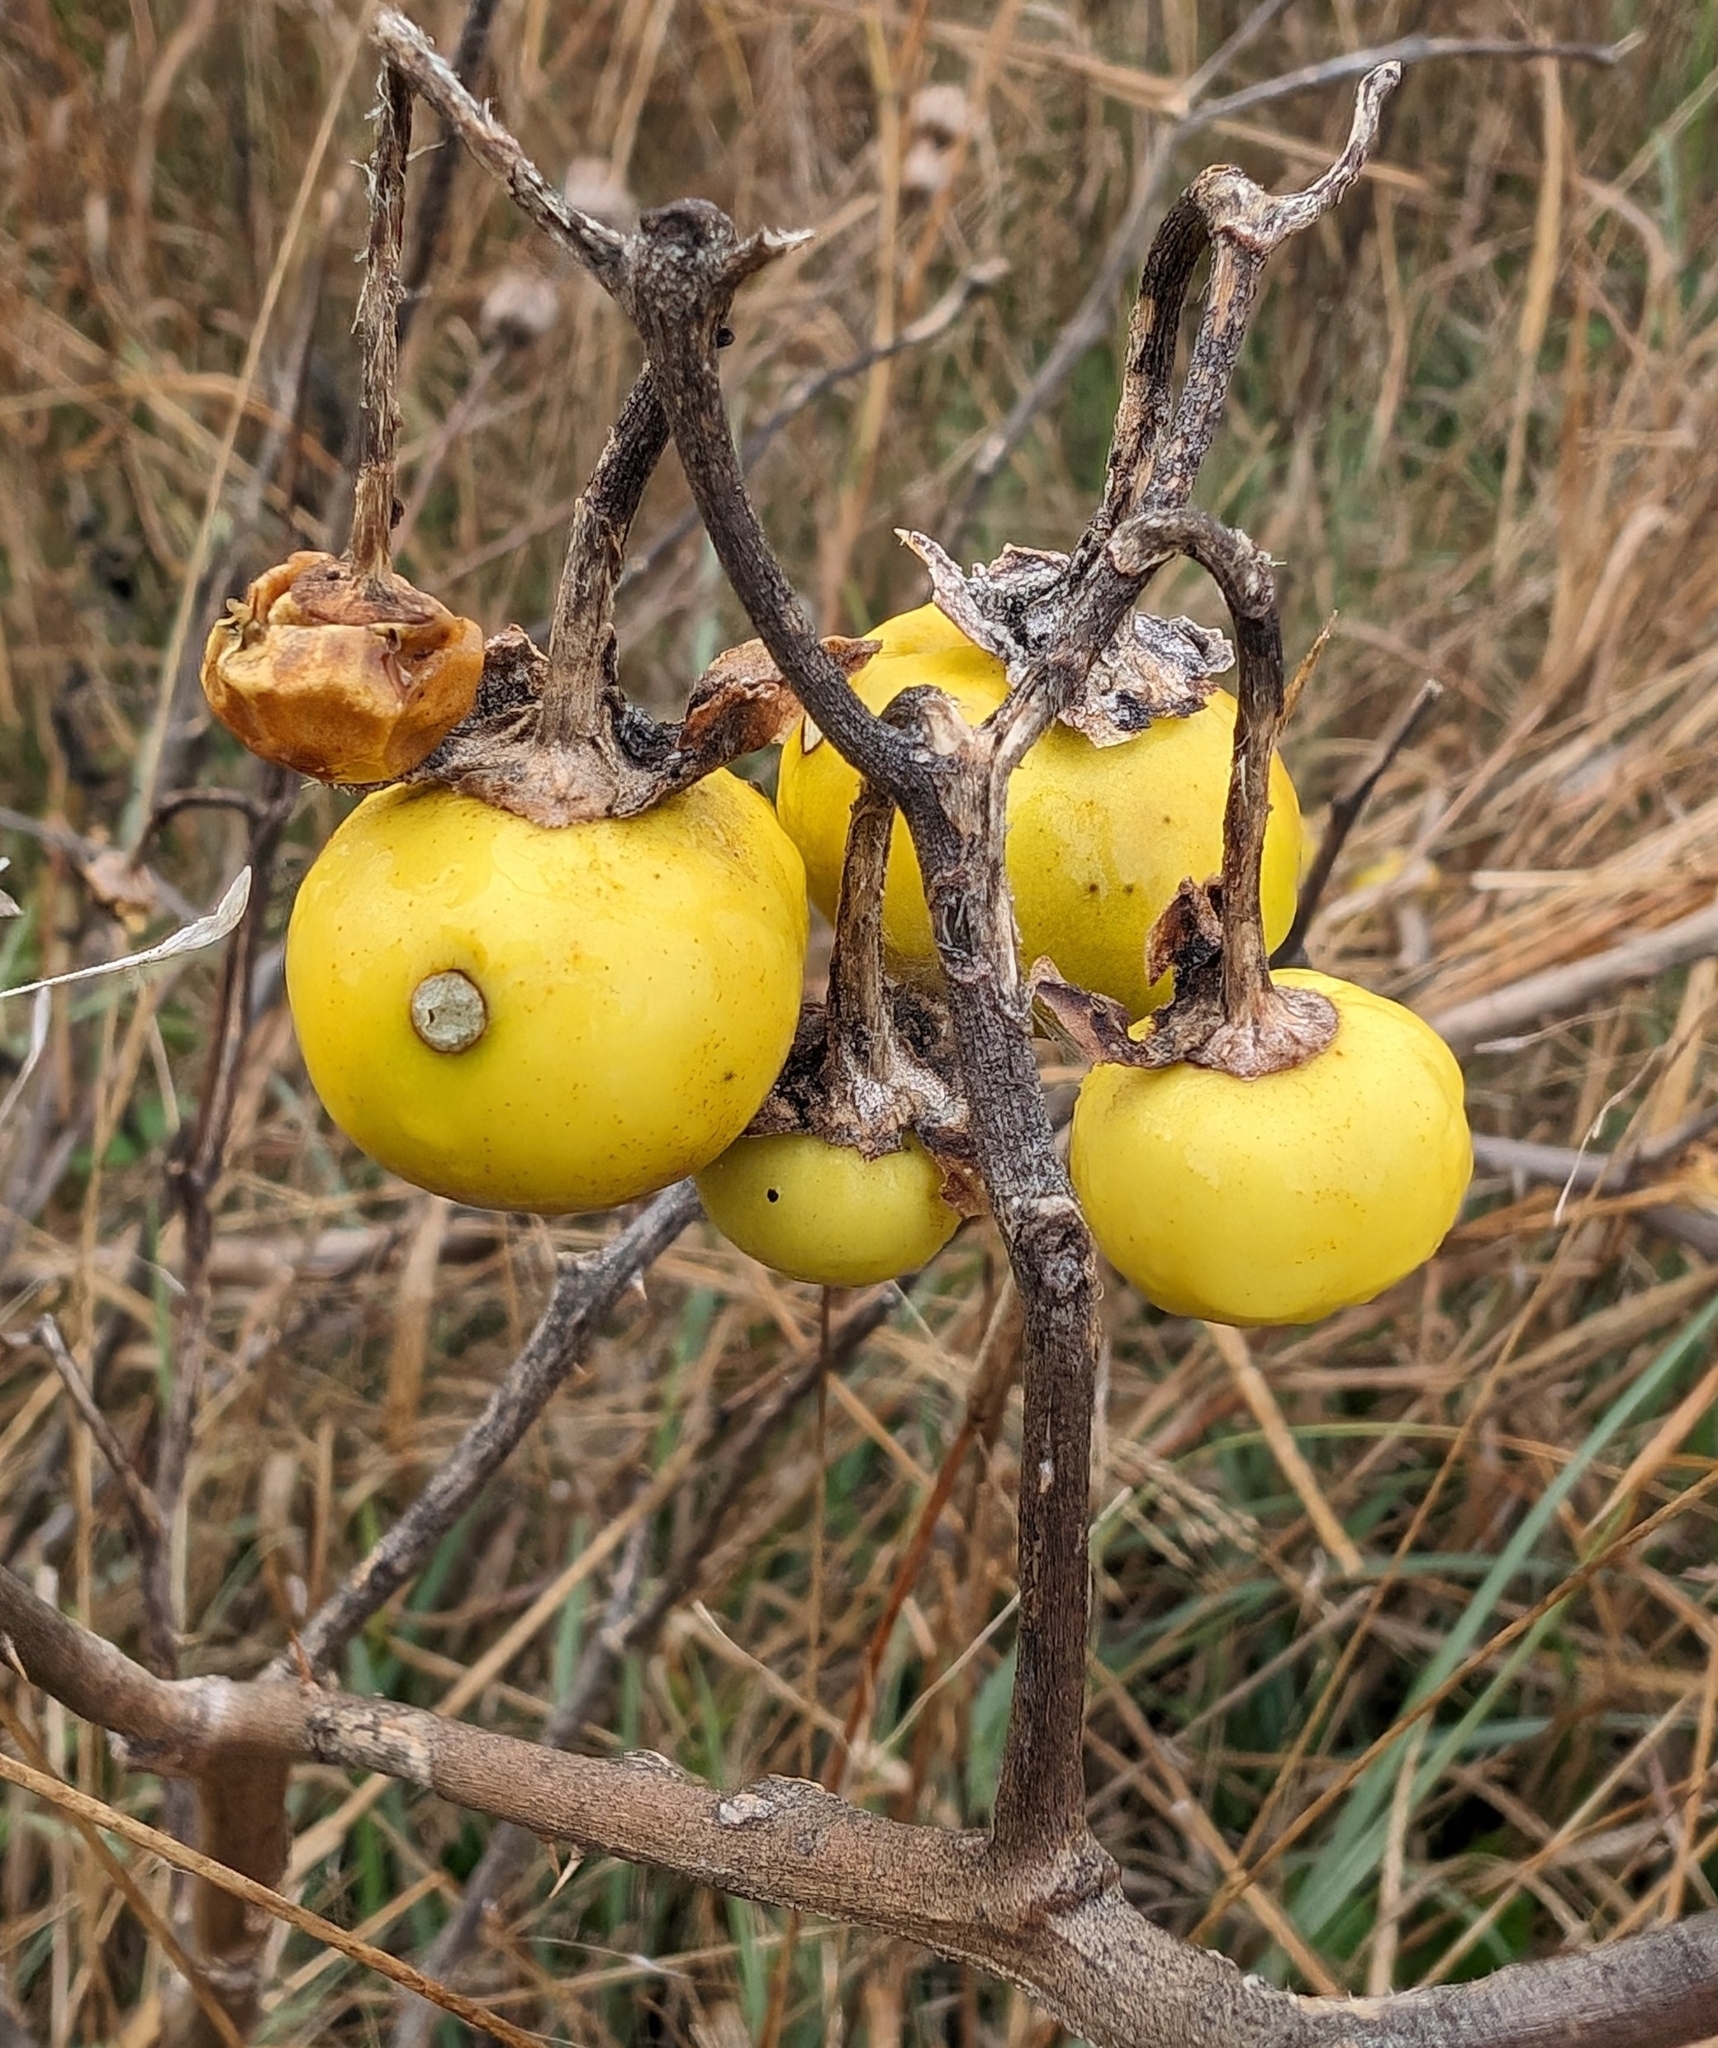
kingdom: Plantae
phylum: Tracheophyta
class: Magnoliopsida
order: Solanales
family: Solanaceae
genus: Solanum
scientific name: Solanum dimidiatum
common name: Carolina horse-nettle
